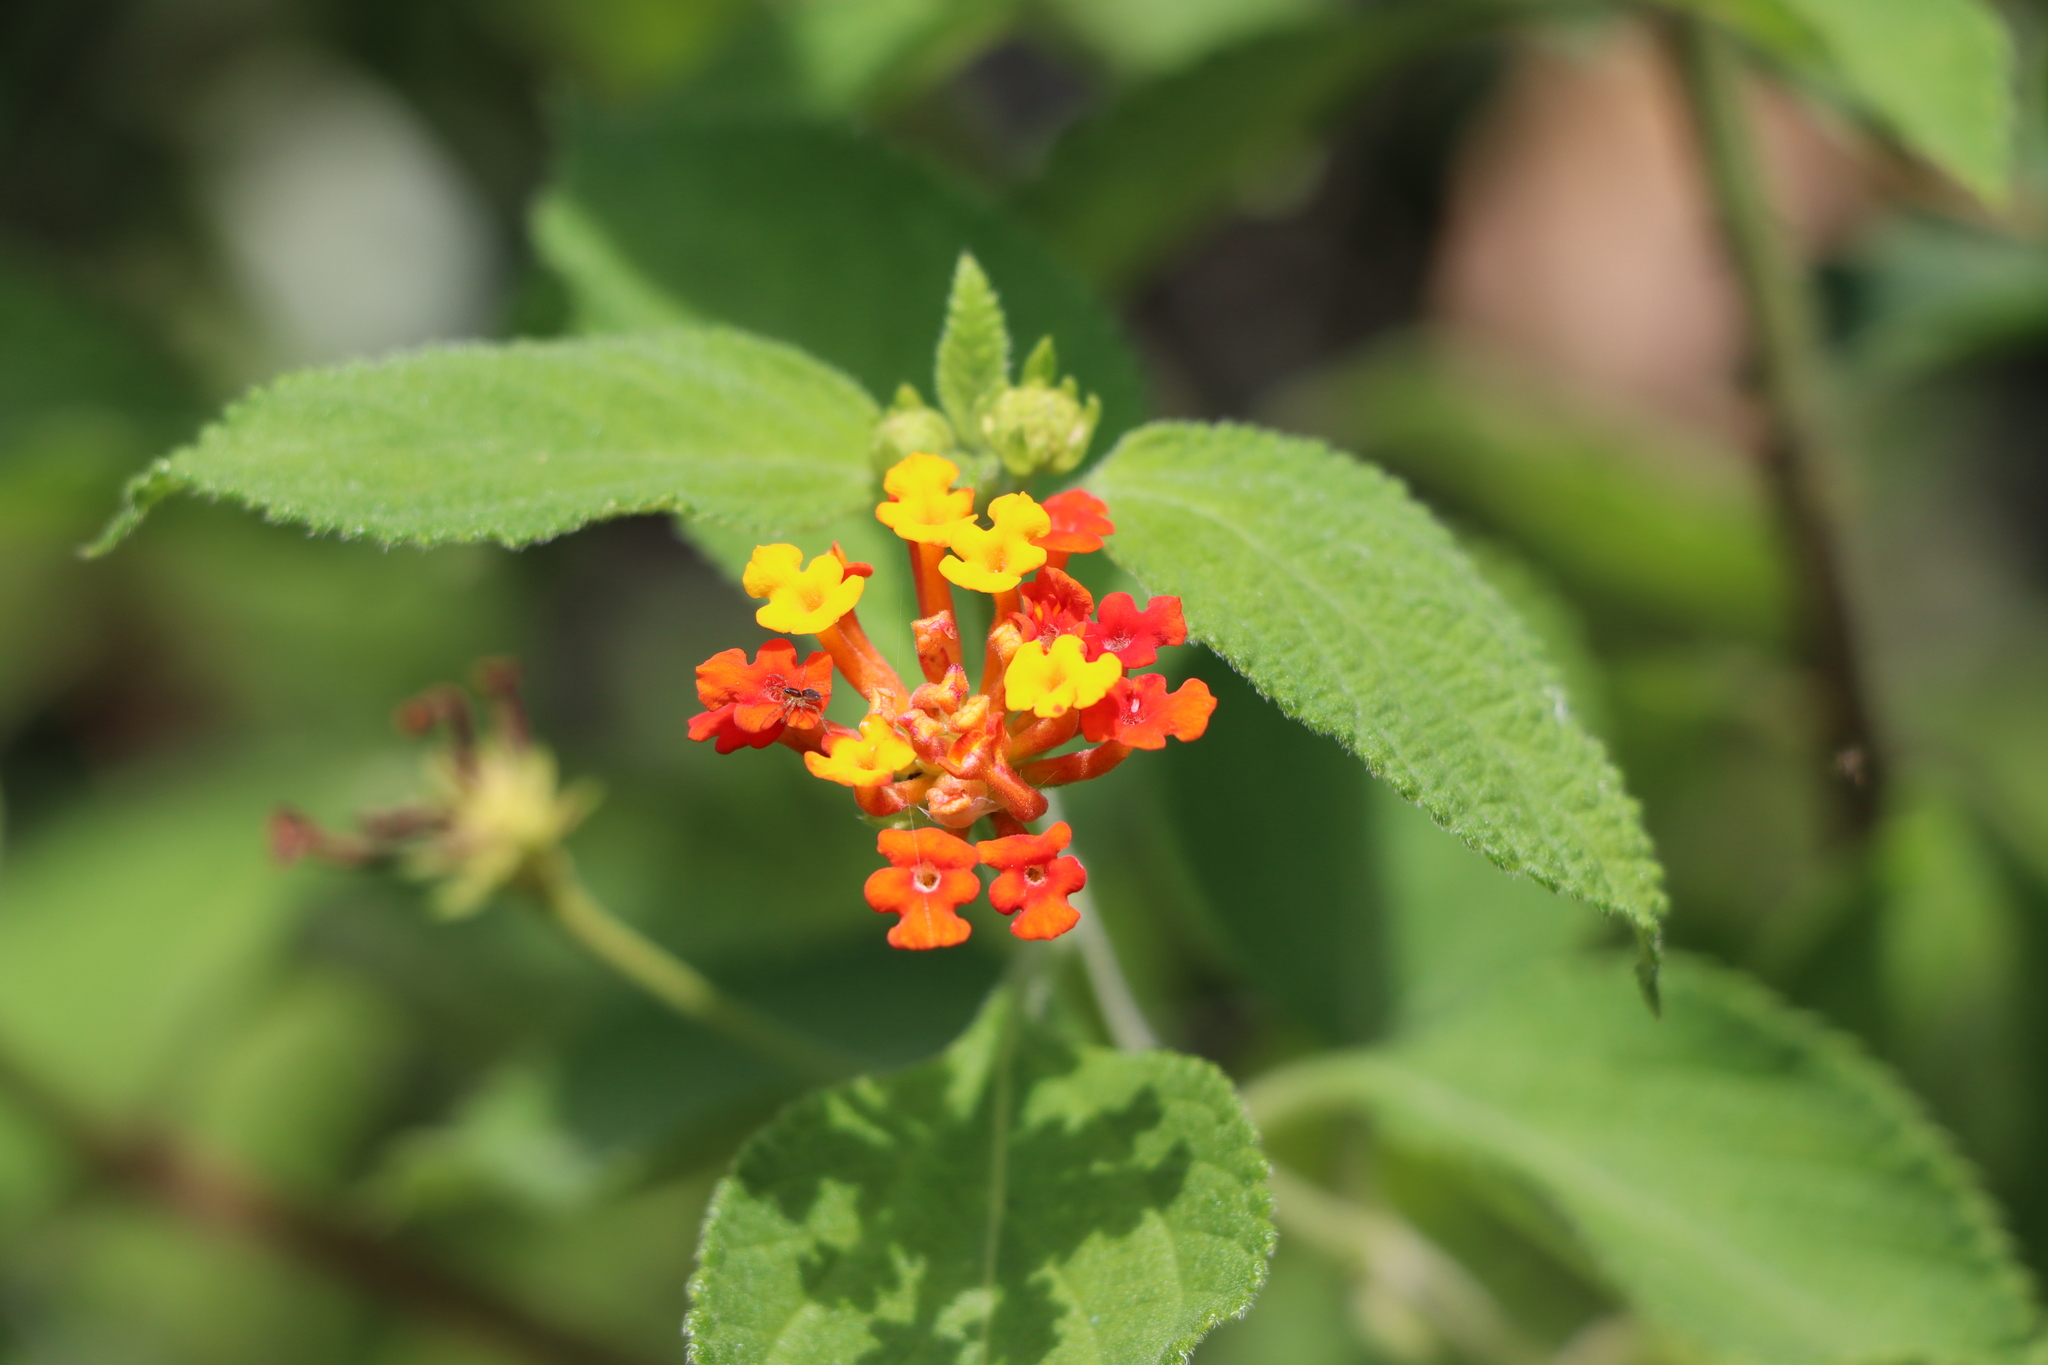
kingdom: Plantae
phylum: Tracheophyta
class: Magnoliopsida
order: Lamiales
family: Verbenaceae
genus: Lantana
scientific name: Lantana camara
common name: Lantana
